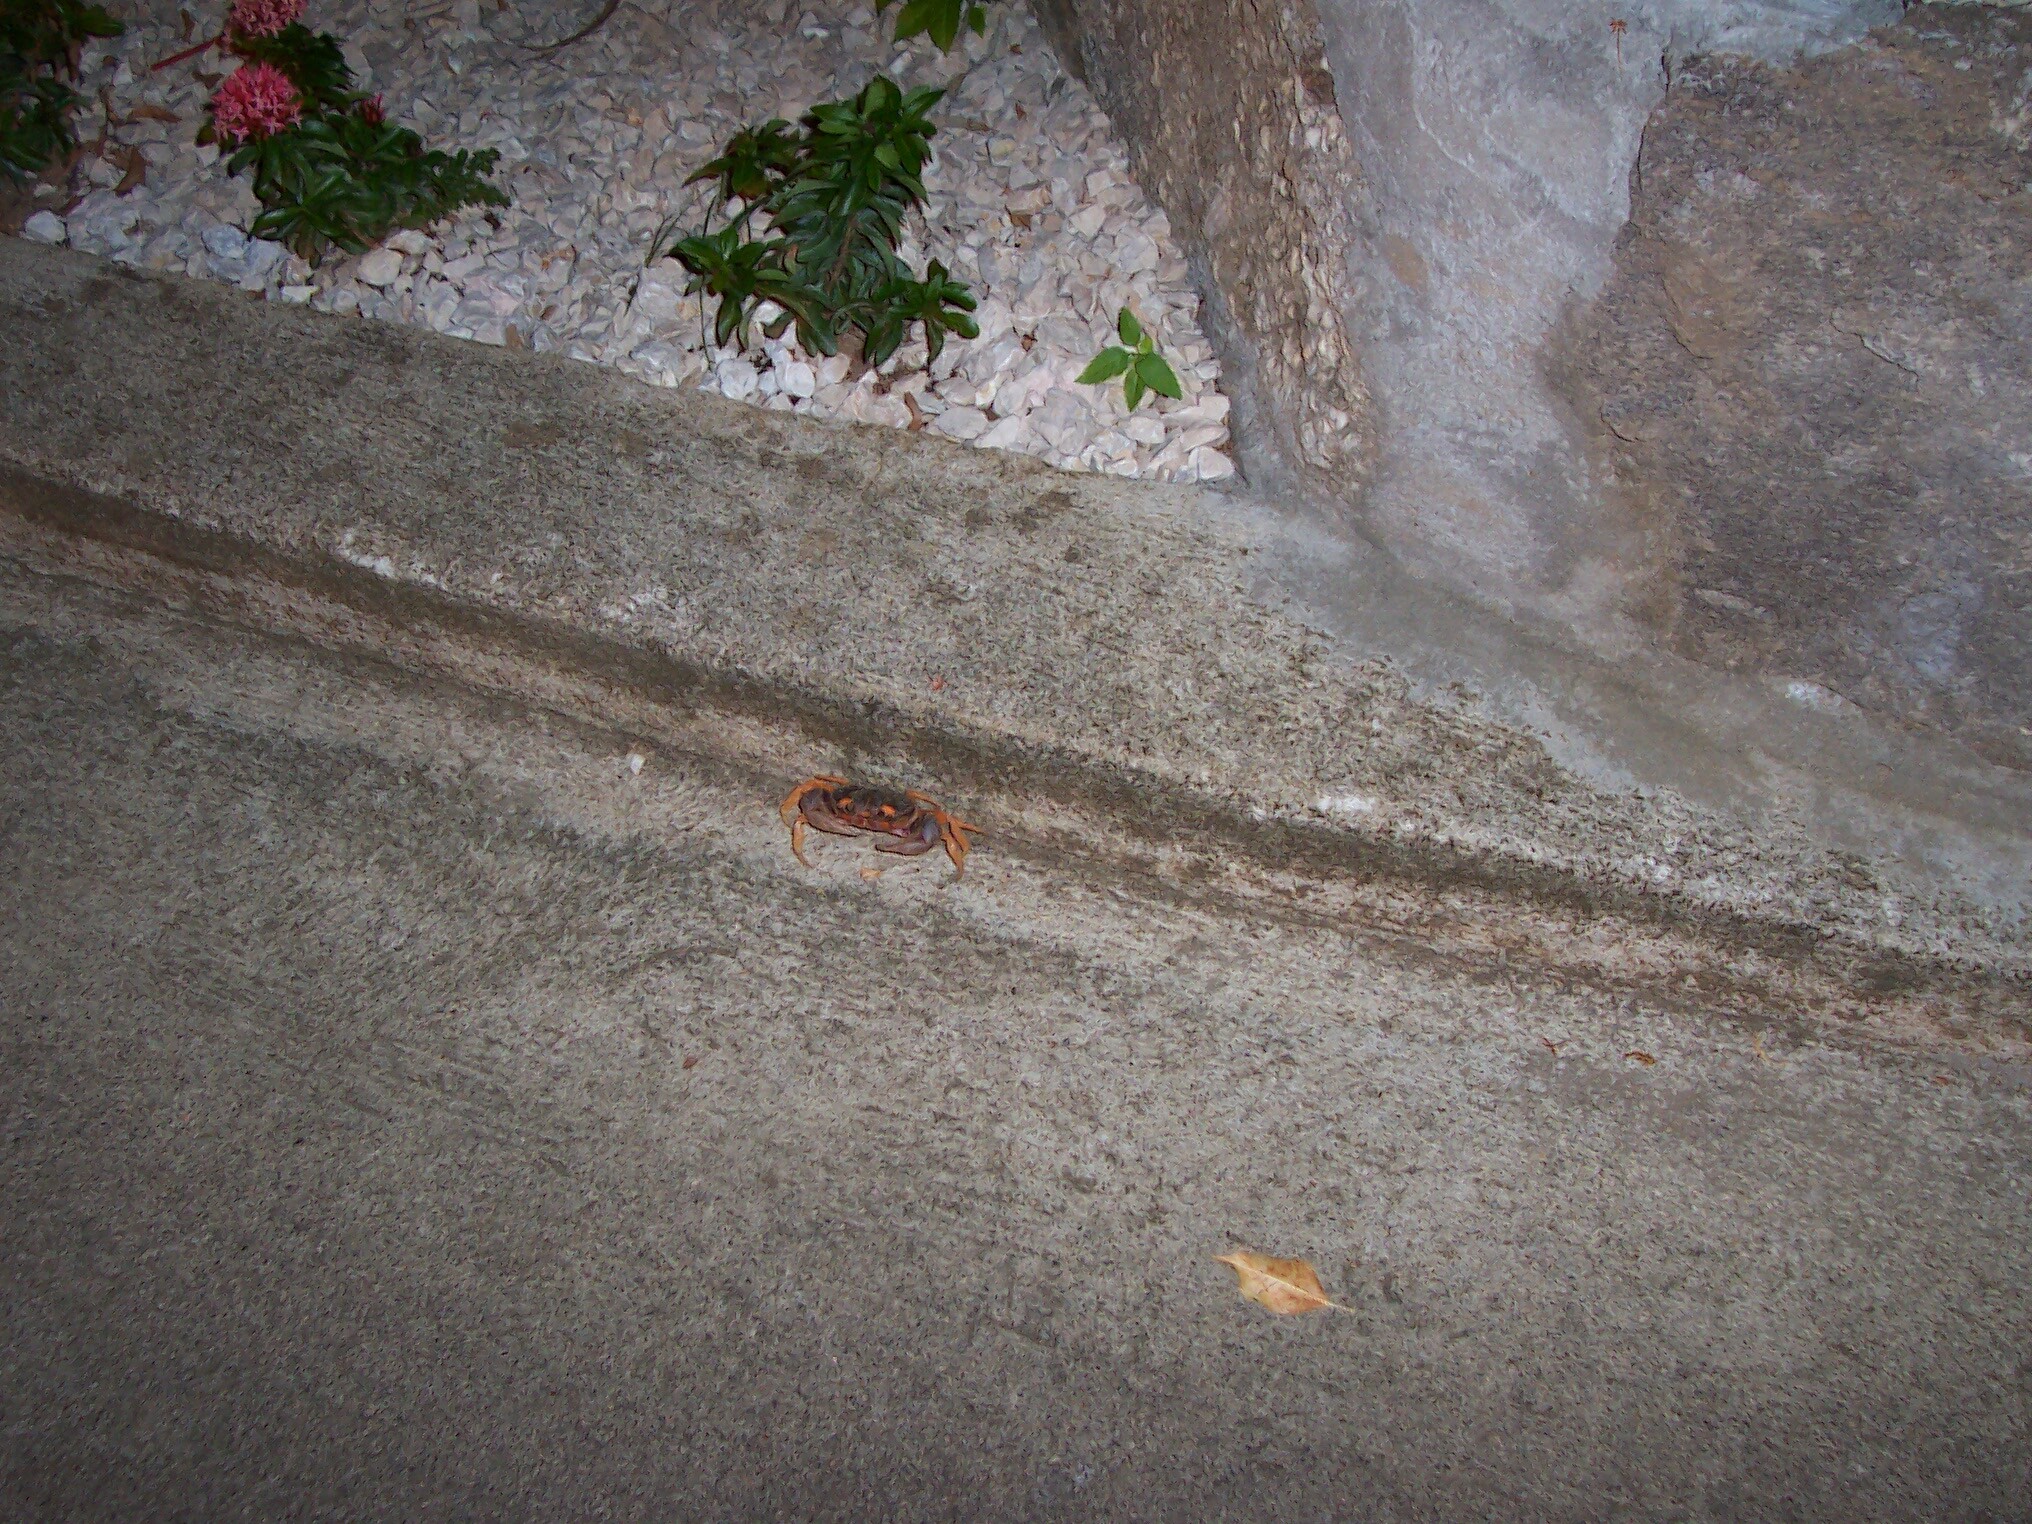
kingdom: Animalia
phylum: Arthropoda
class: Malacostraca
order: Decapoda
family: Gecarcinidae
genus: Gecarcinus
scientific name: Gecarcinus quadratus
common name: Halloween crab
